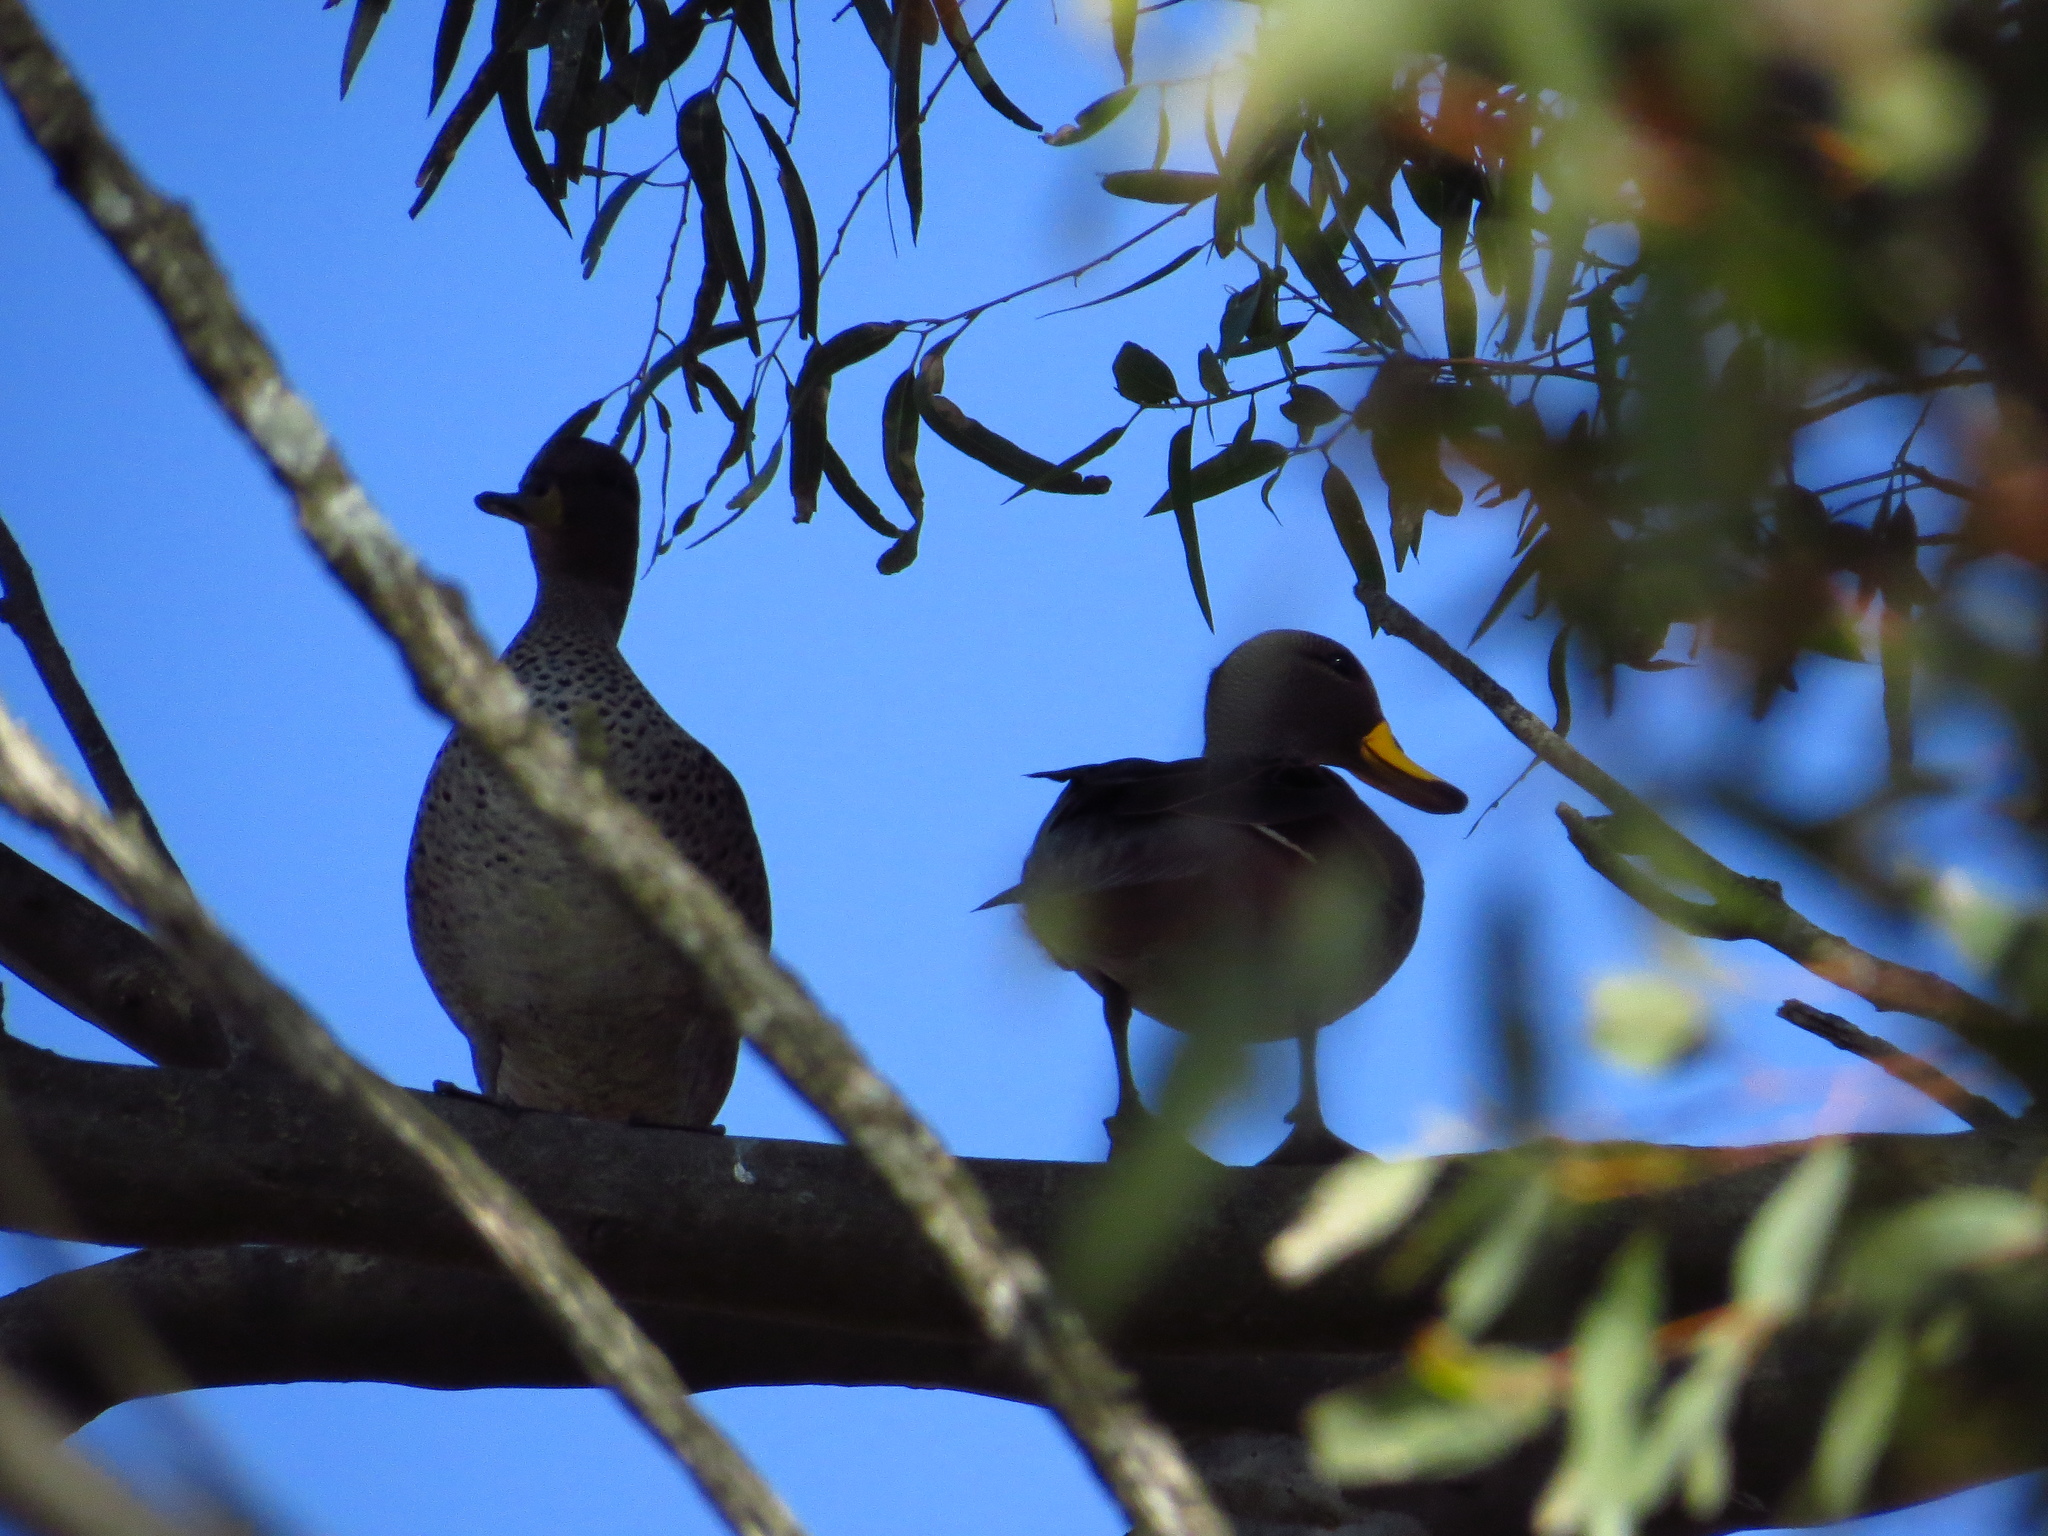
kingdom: Animalia
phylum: Chordata
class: Aves
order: Anseriformes
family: Anatidae
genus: Anas
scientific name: Anas flavirostris
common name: Yellow-billed teal
